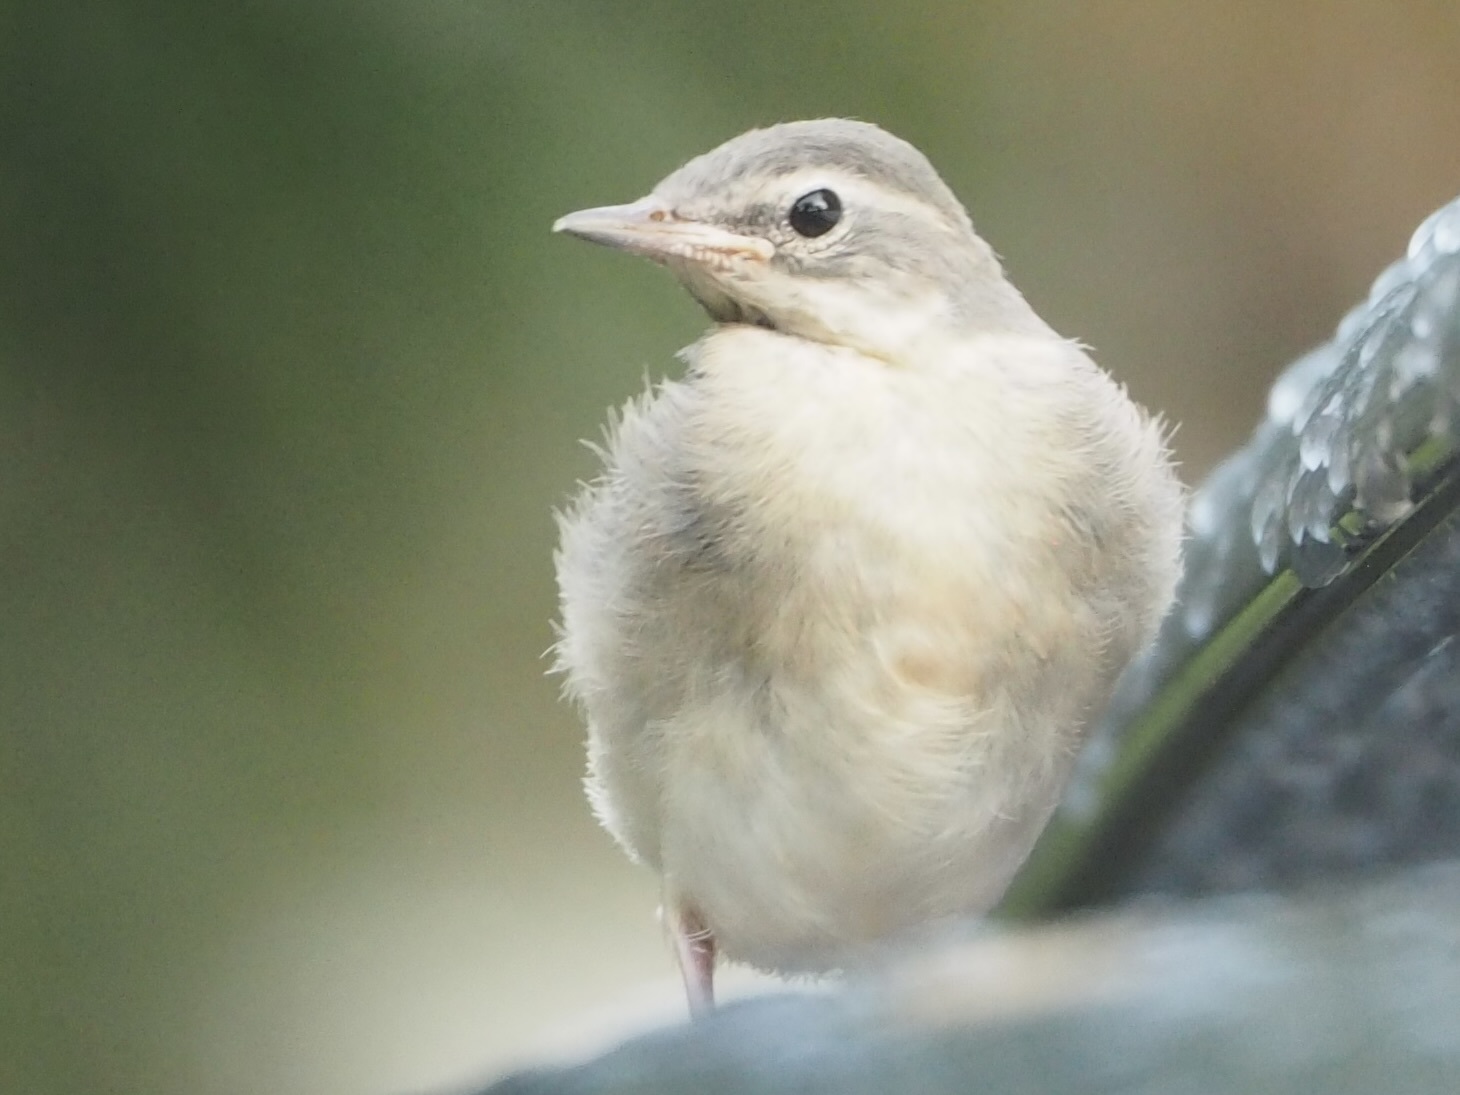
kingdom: Animalia
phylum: Chordata
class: Aves
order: Passeriformes
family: Motacillidae
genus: Motacilla
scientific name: Motacilla cinerea
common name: Grey wagtail
